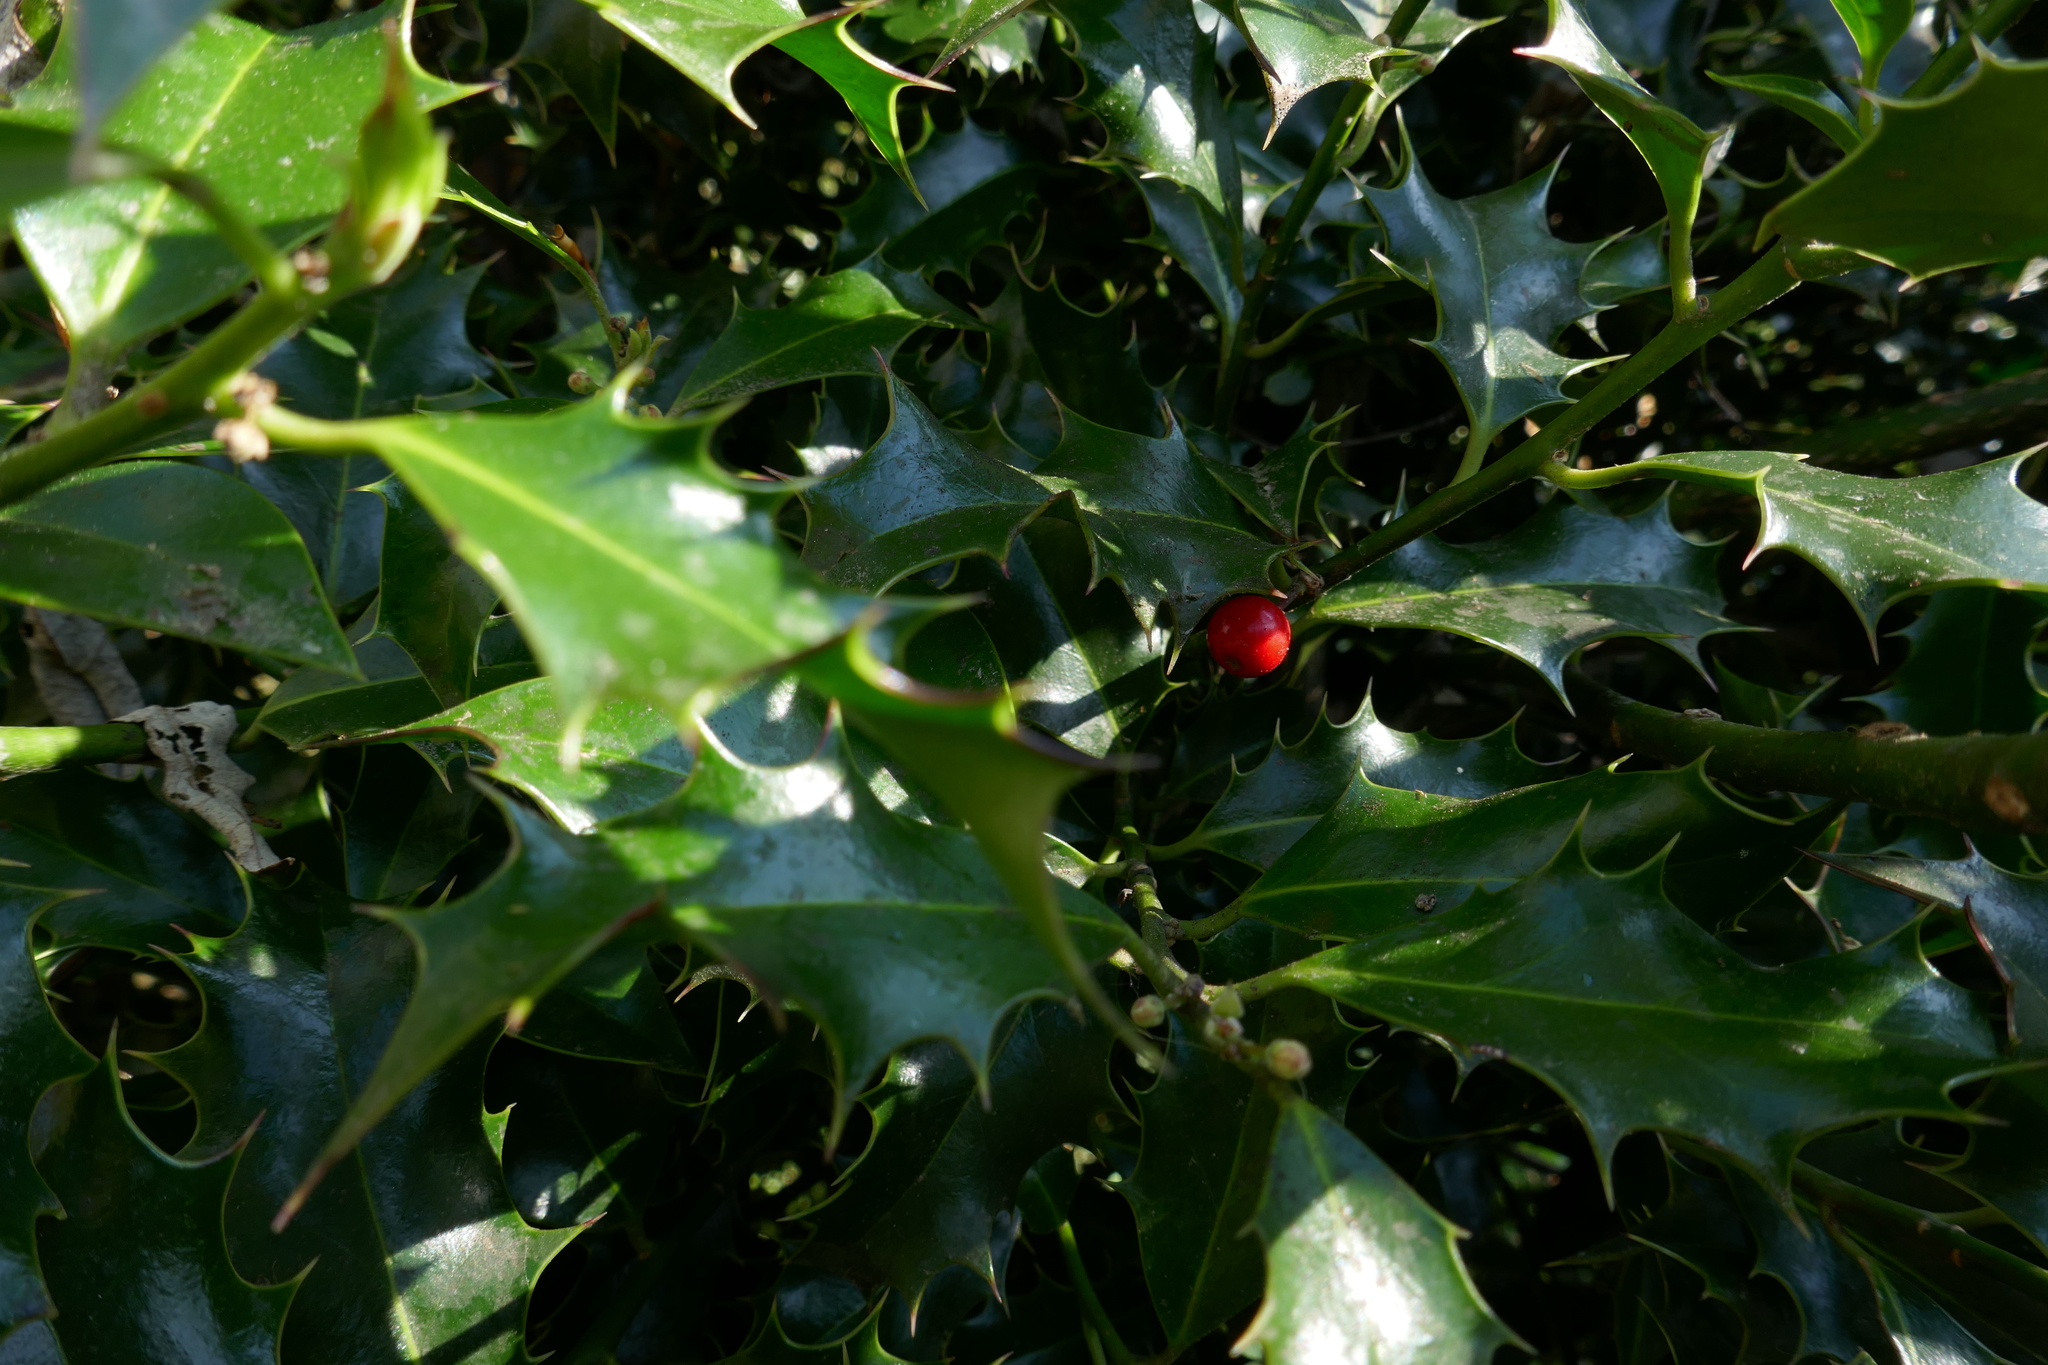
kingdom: Plantae
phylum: Tracheophyta
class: Magnoliopsida
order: Aquifoliales
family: Aquifoliaceae
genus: Ilex
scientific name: Ilex aquifolium
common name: English holly
